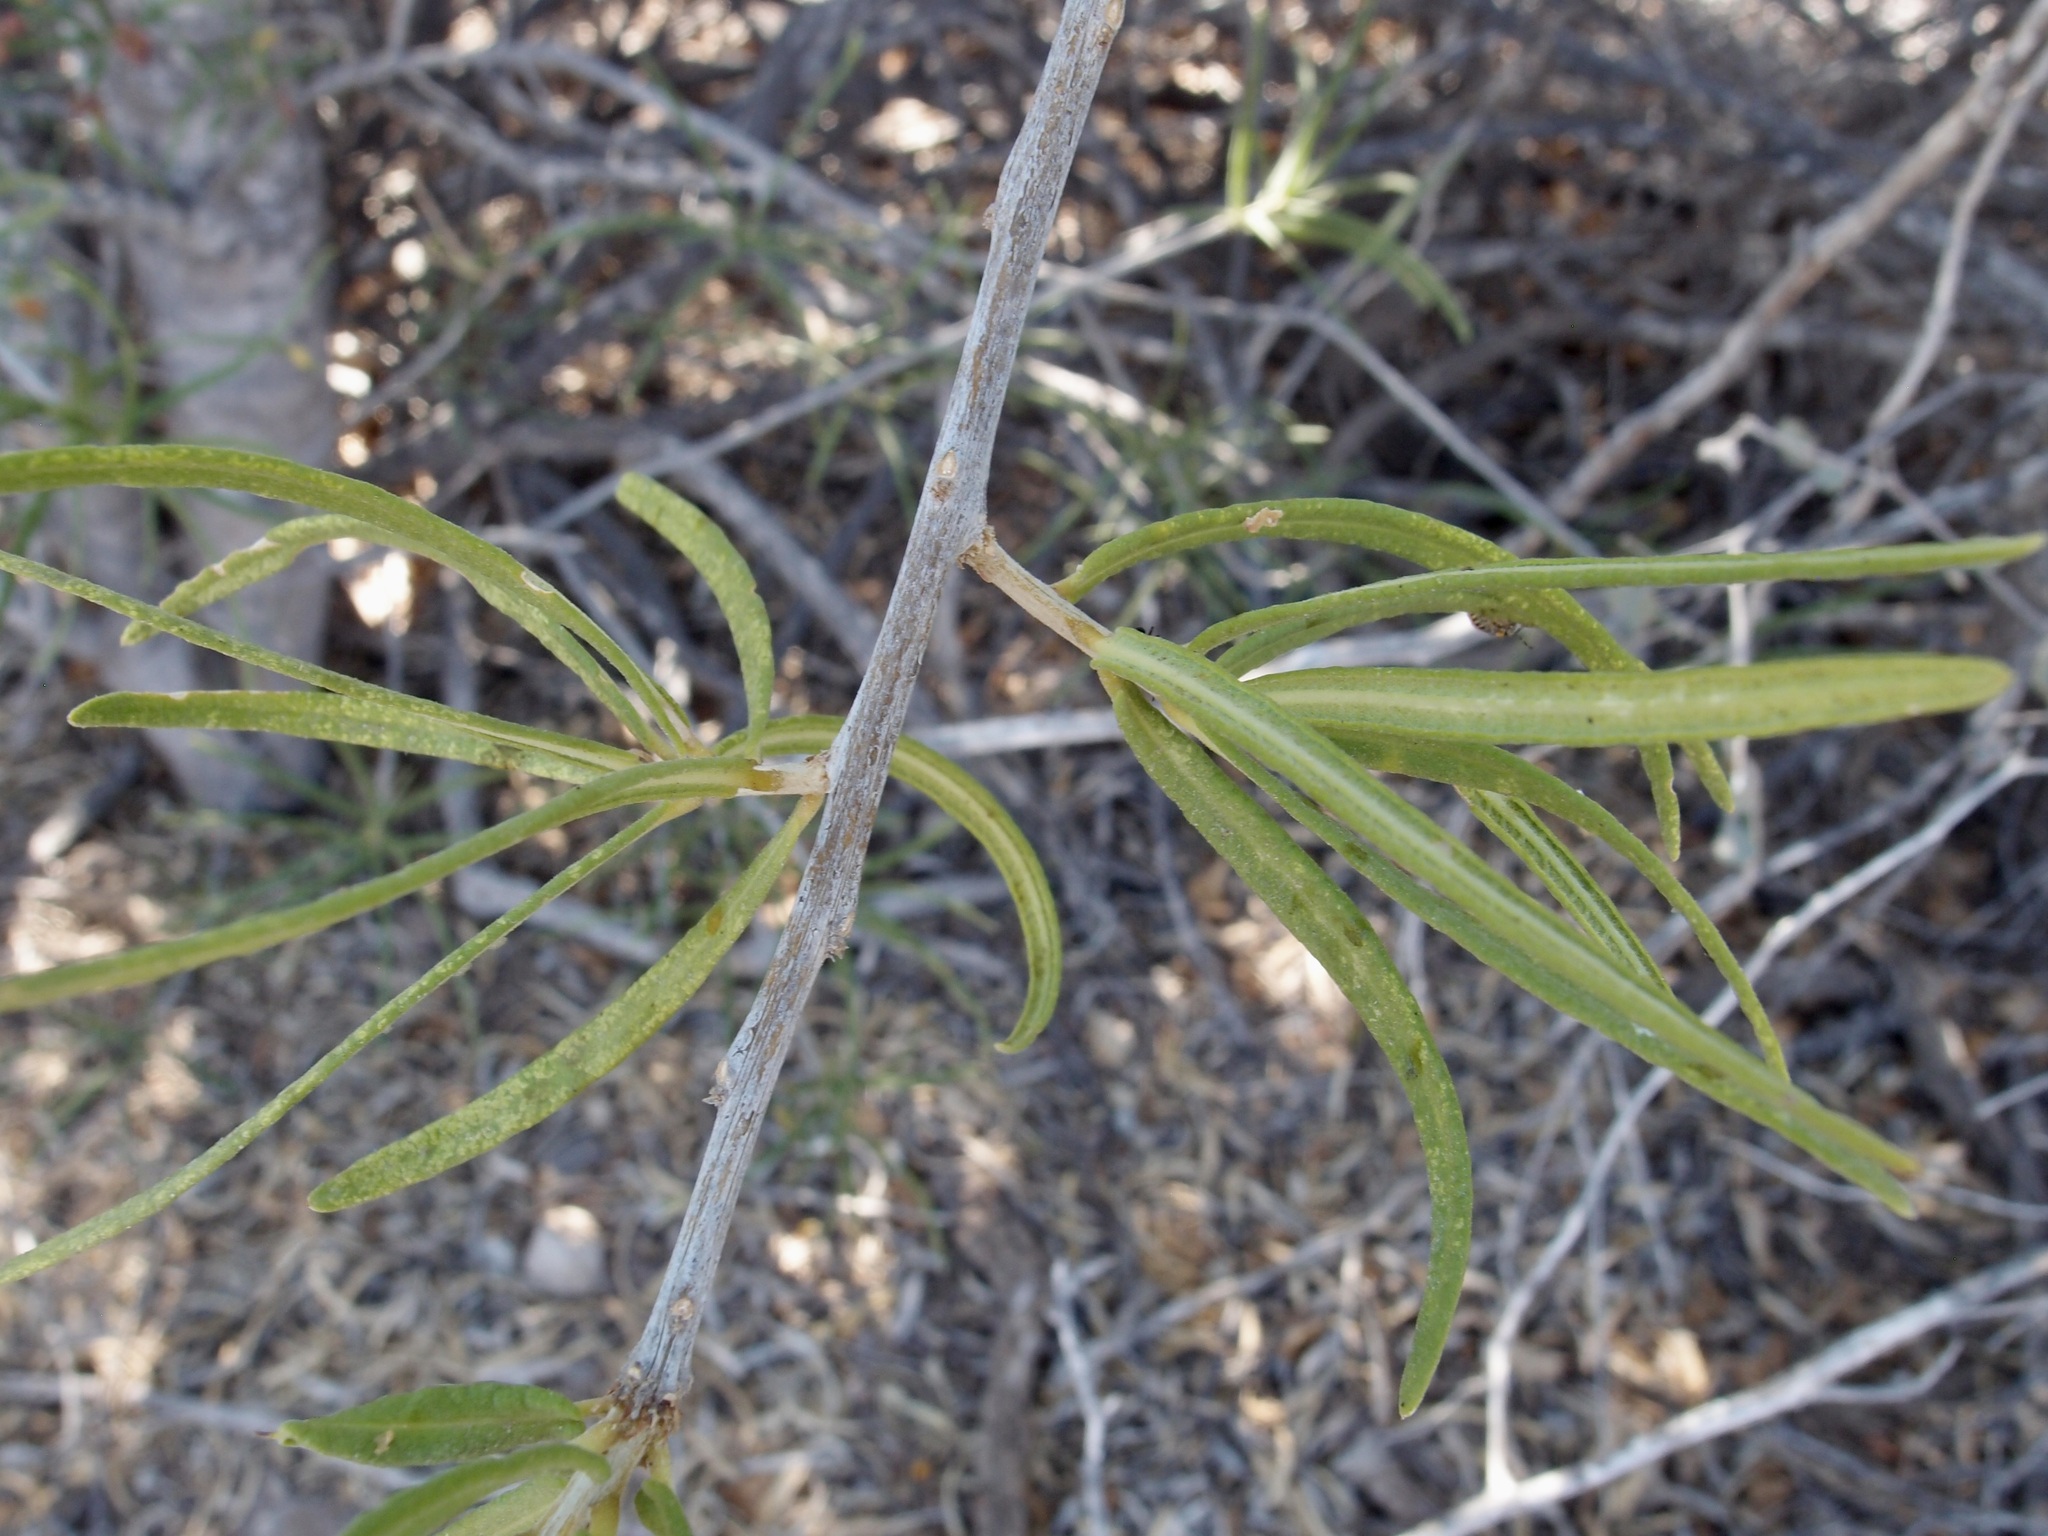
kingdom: Plantae
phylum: Tracheophyta
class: Magnoliopsida
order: Brassicales
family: Stixaceae
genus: Forchhammeria
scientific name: Forchhammeria watsonii
